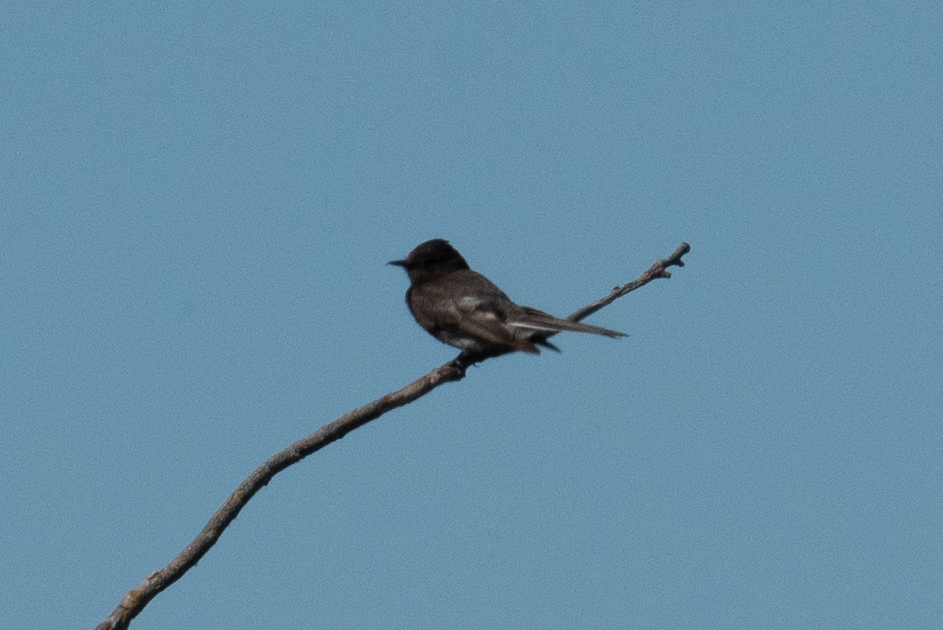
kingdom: Animalia
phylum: Chordata
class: Aves
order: Passeriformes
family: Tyrannidae
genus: Sayornis
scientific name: Sayornis nigricans
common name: Black phoebe
